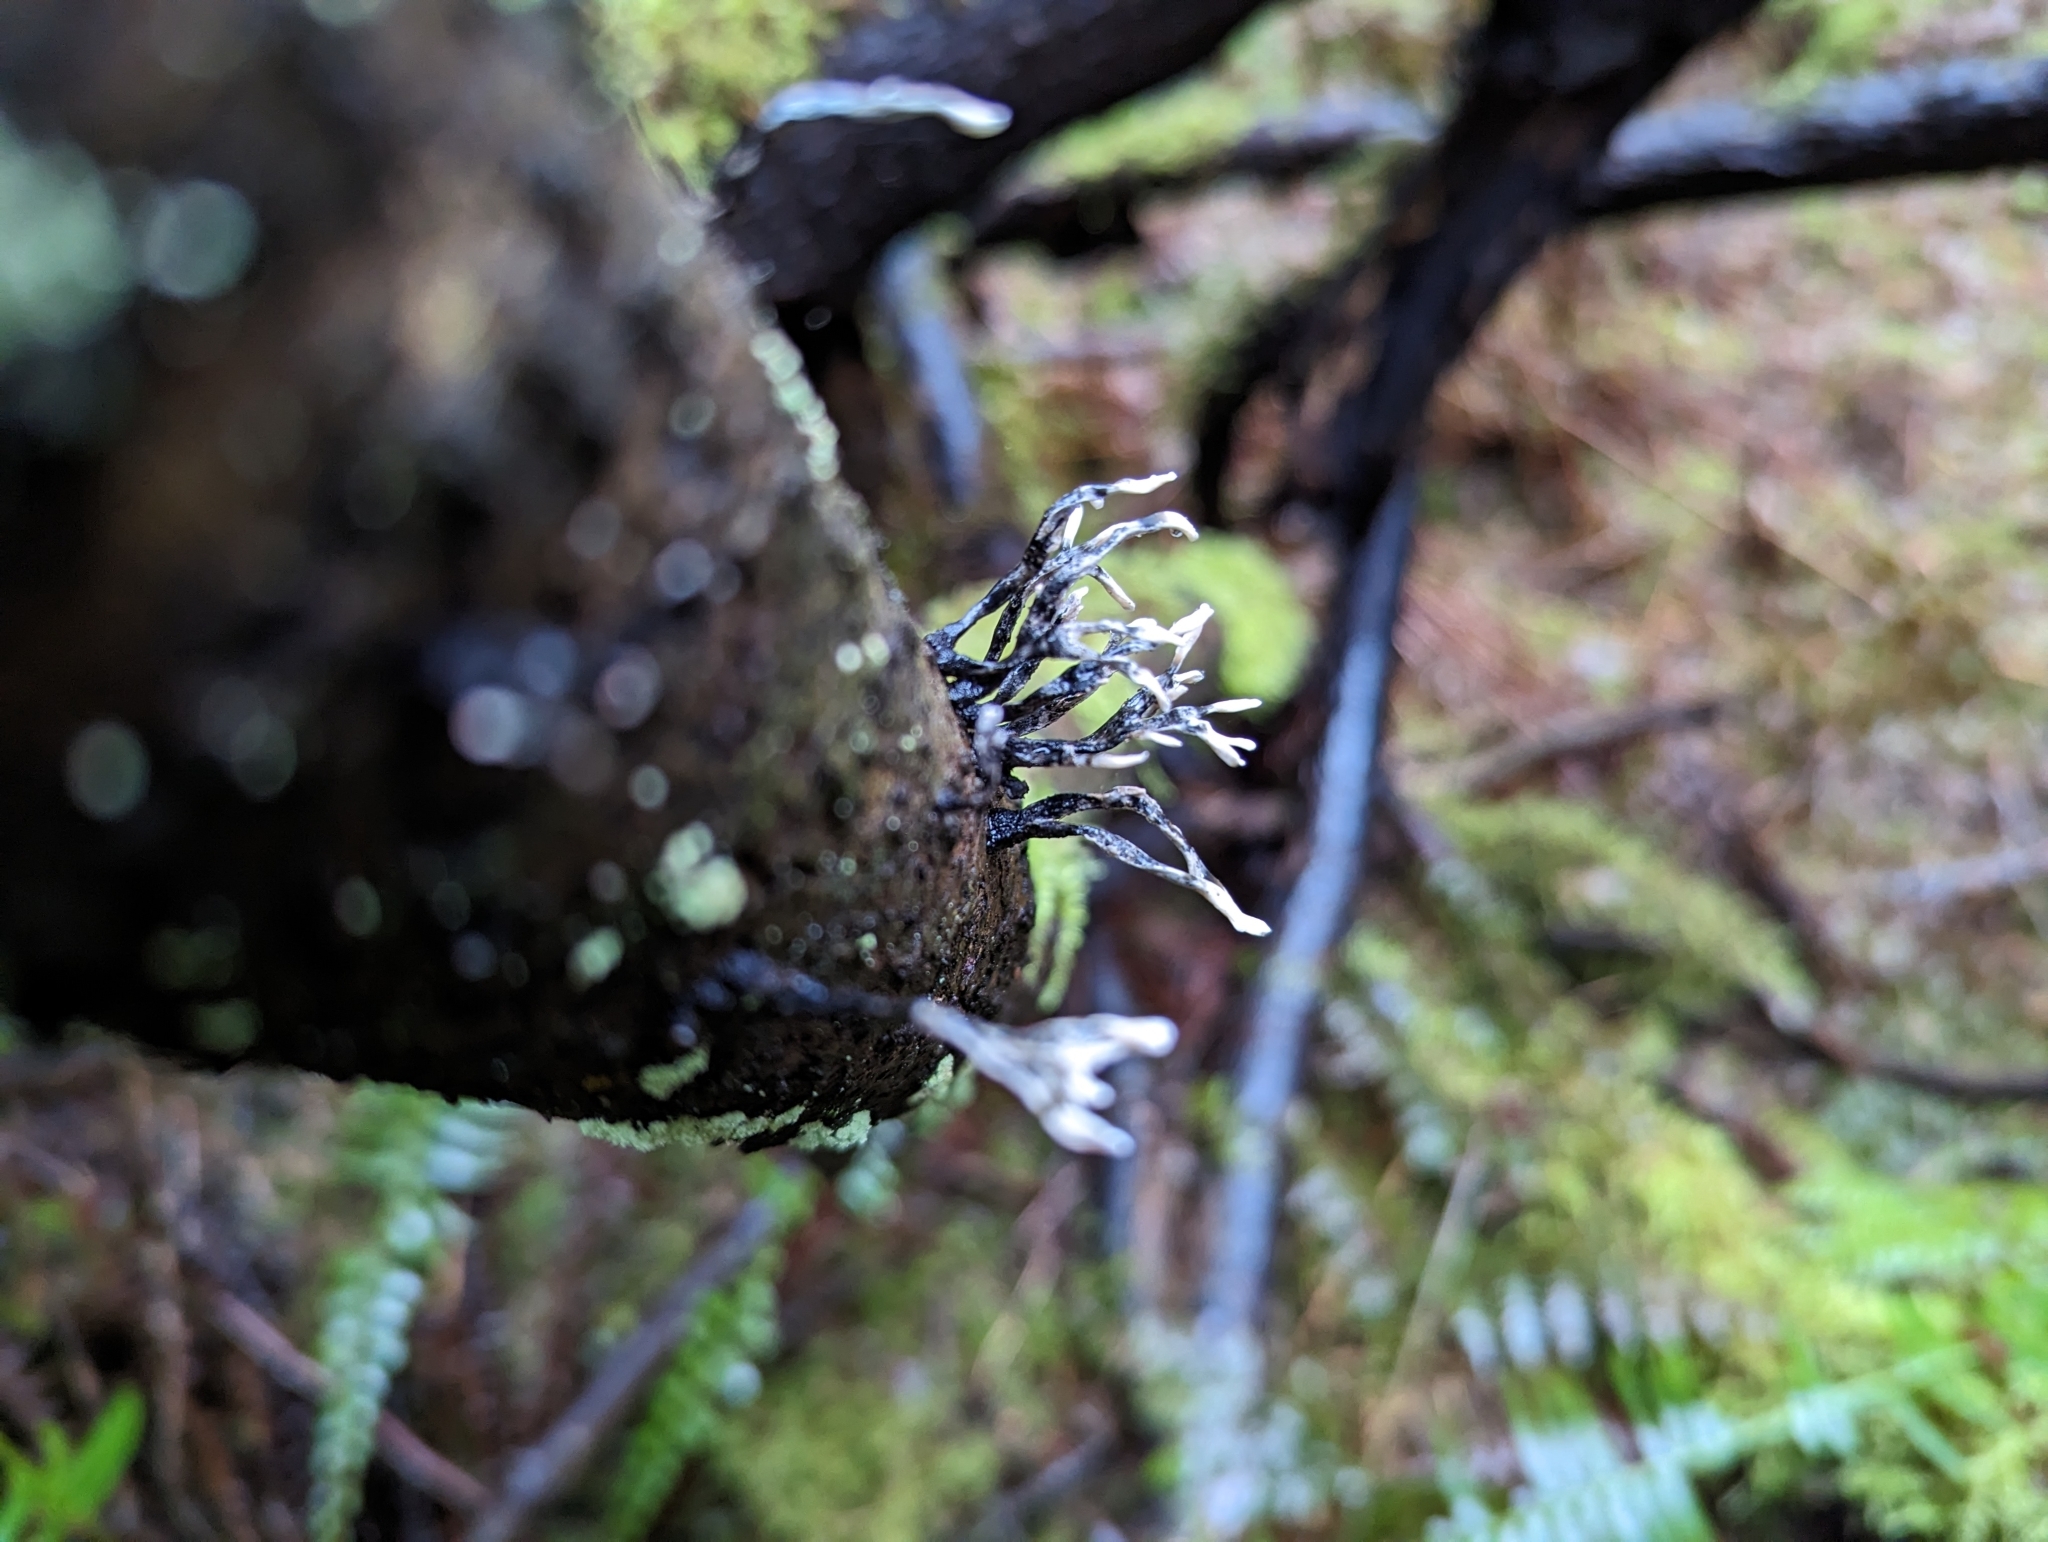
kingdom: Fungi
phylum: Ascomycota
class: Sordariomycetes
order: Xylariales
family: Xylariaceae
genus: Xylaria
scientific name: Xylaria hypoxylon
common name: Candle-snuff fungus
